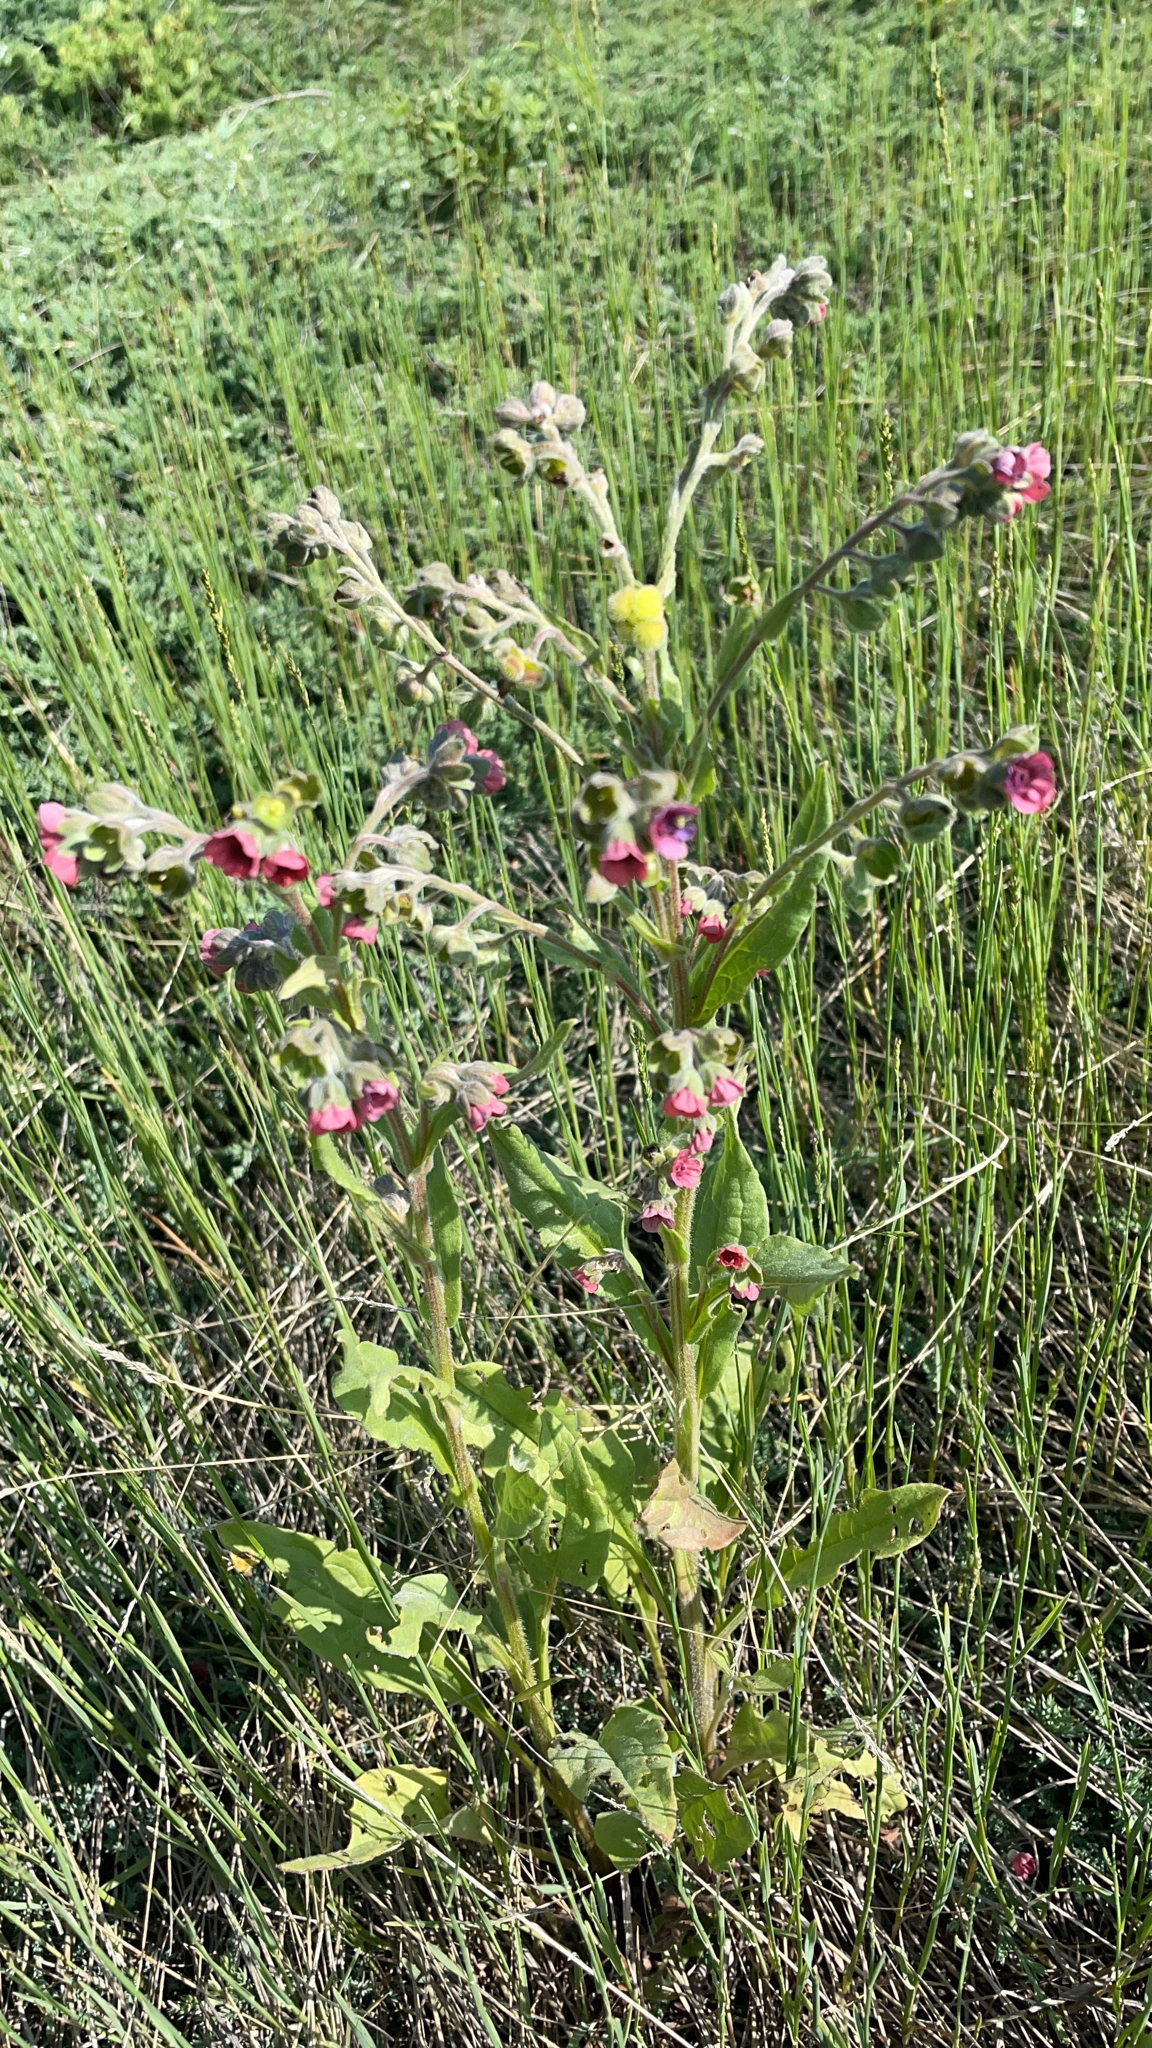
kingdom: Plantae
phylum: Tracheophyta
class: Magnoliopsida
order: Boraginales
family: Boraginaceae
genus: Cynoglossum
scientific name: Cynoglossum officinale
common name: Hound's-tongue
